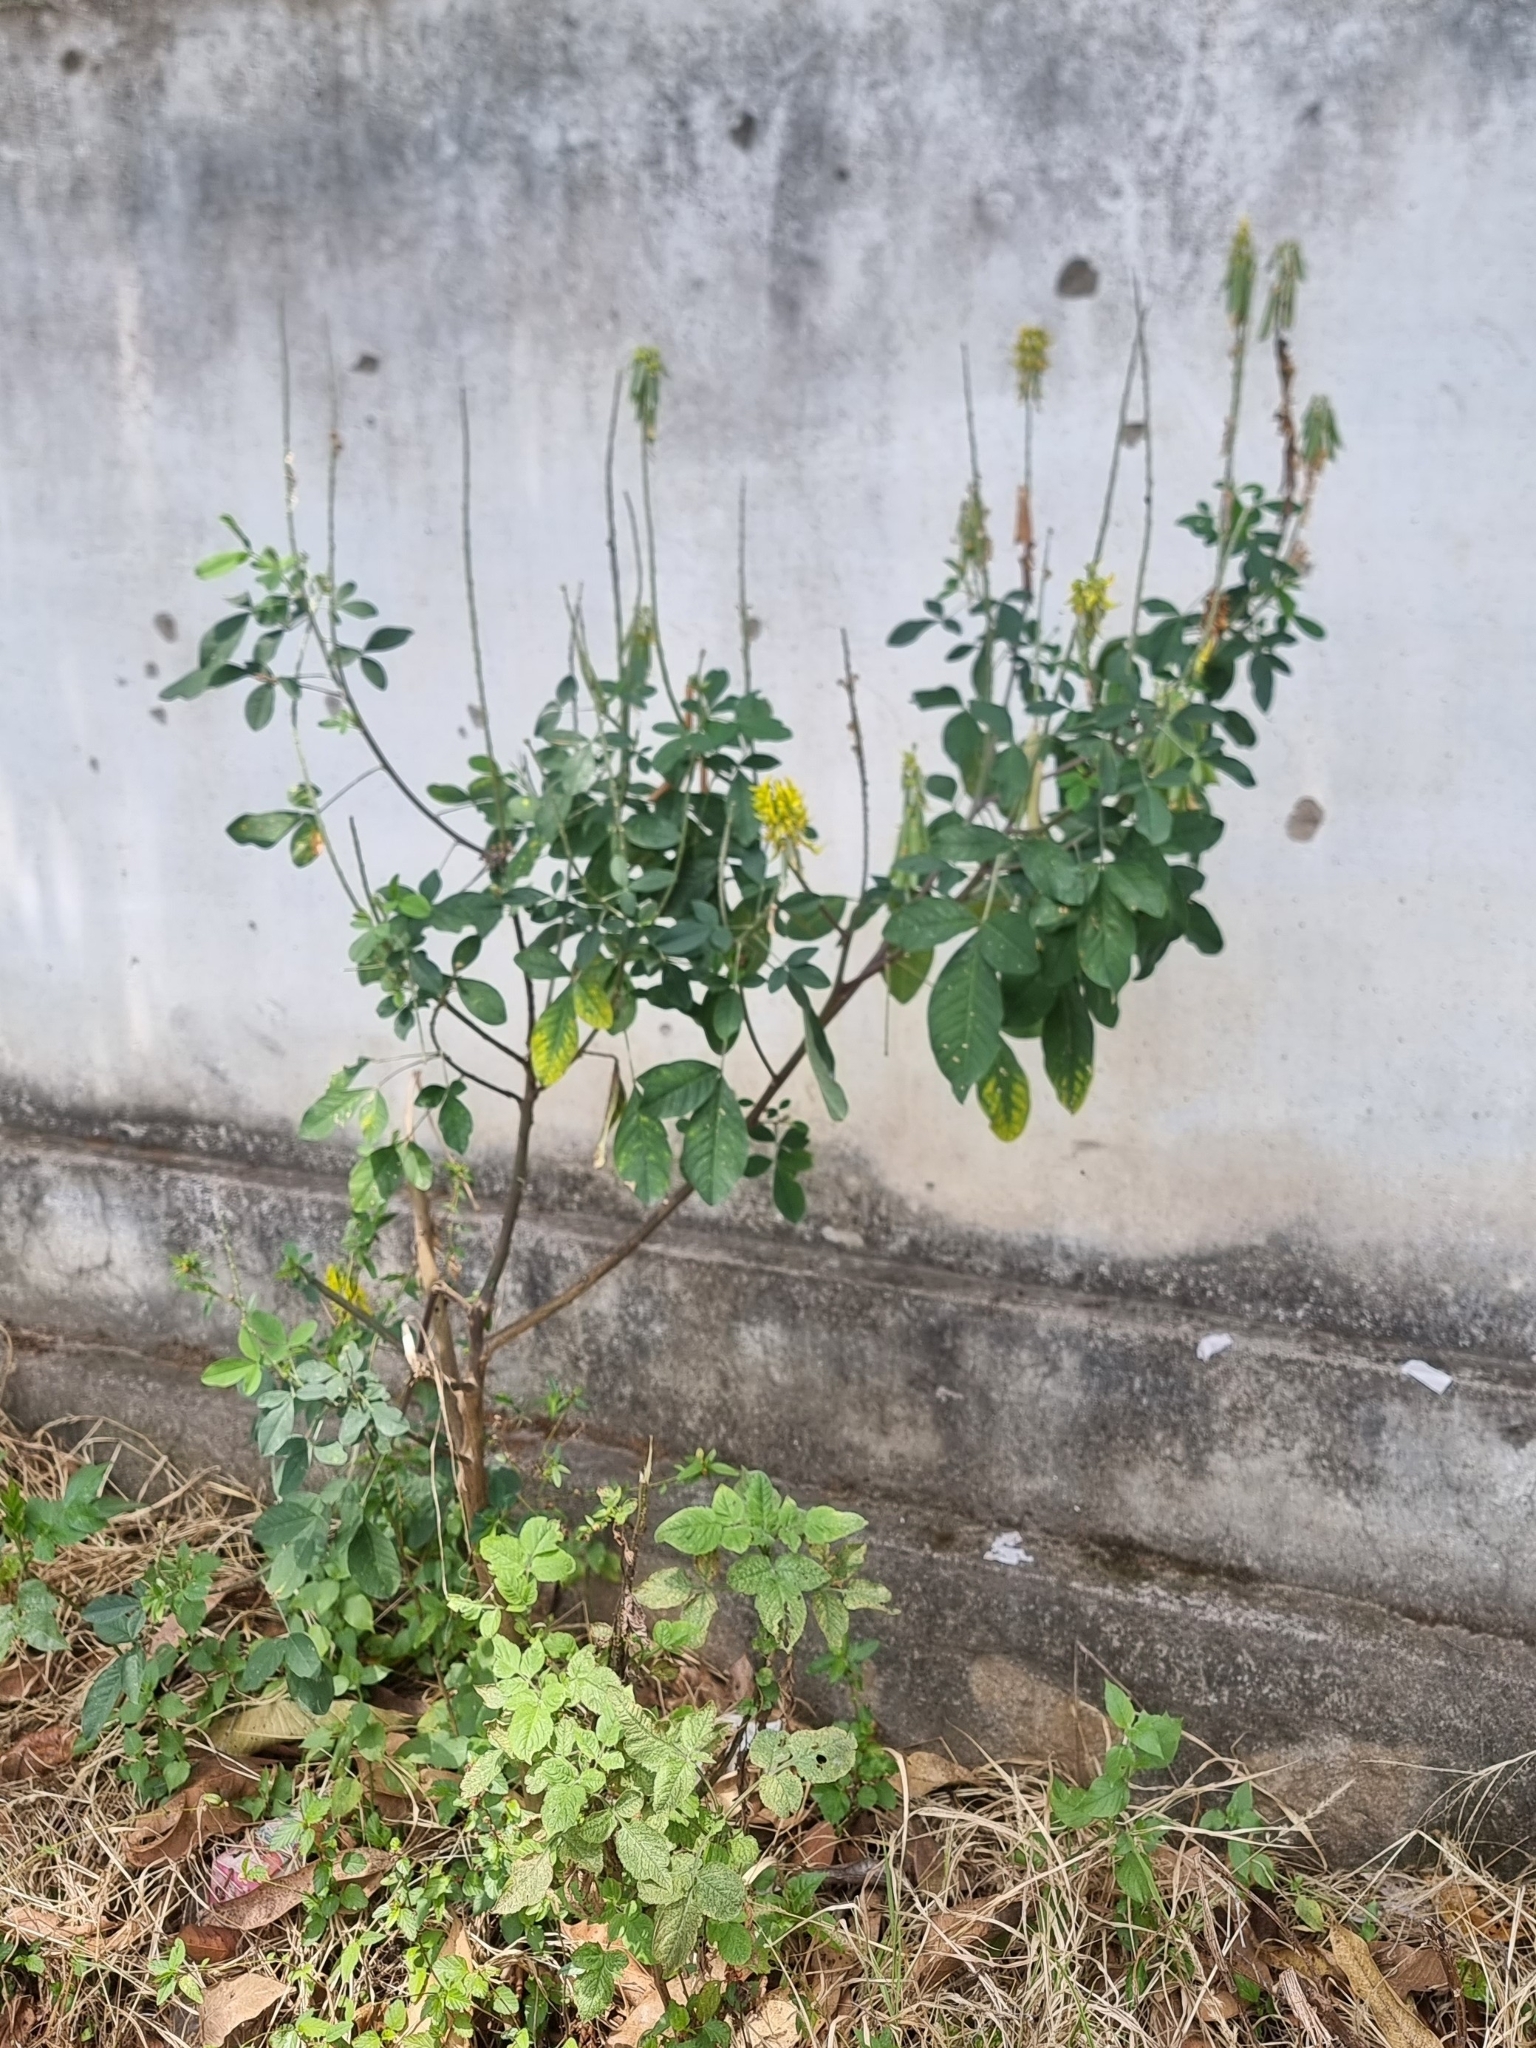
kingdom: Plantae
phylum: Tracheophyta
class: Magnoliopsida
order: Fabales
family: Fabaceae
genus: Crotalaria
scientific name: Crotalaria pallida
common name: Smooth rattlebox
